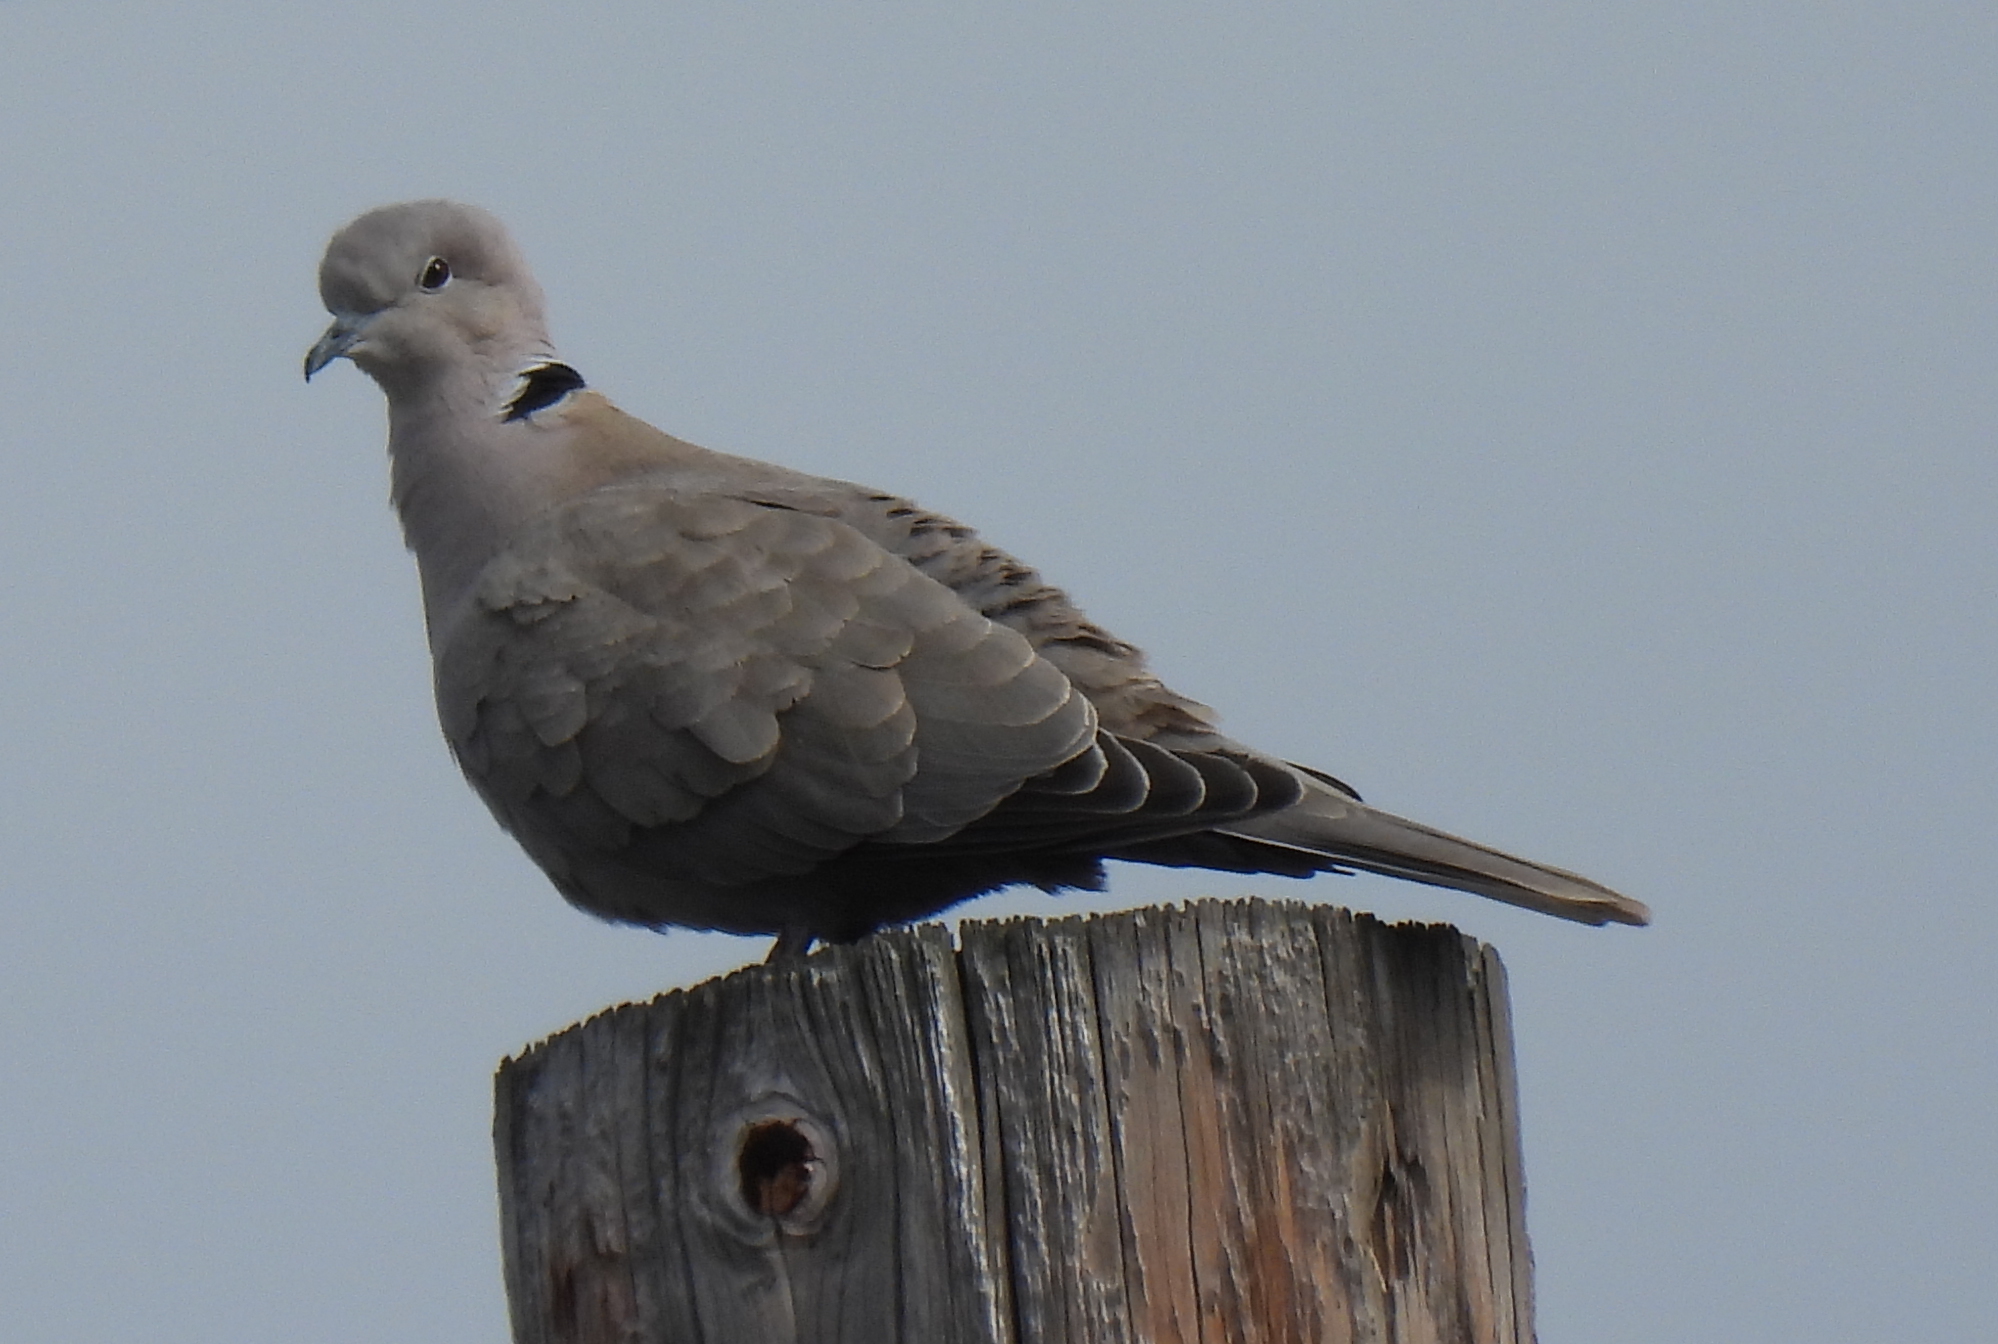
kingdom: Animalia
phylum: Chordata
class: Aves
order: Columbiformes
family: Columbidae
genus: Streptopelia
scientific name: Streptopelia decaocto
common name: Eurasian collared dove
